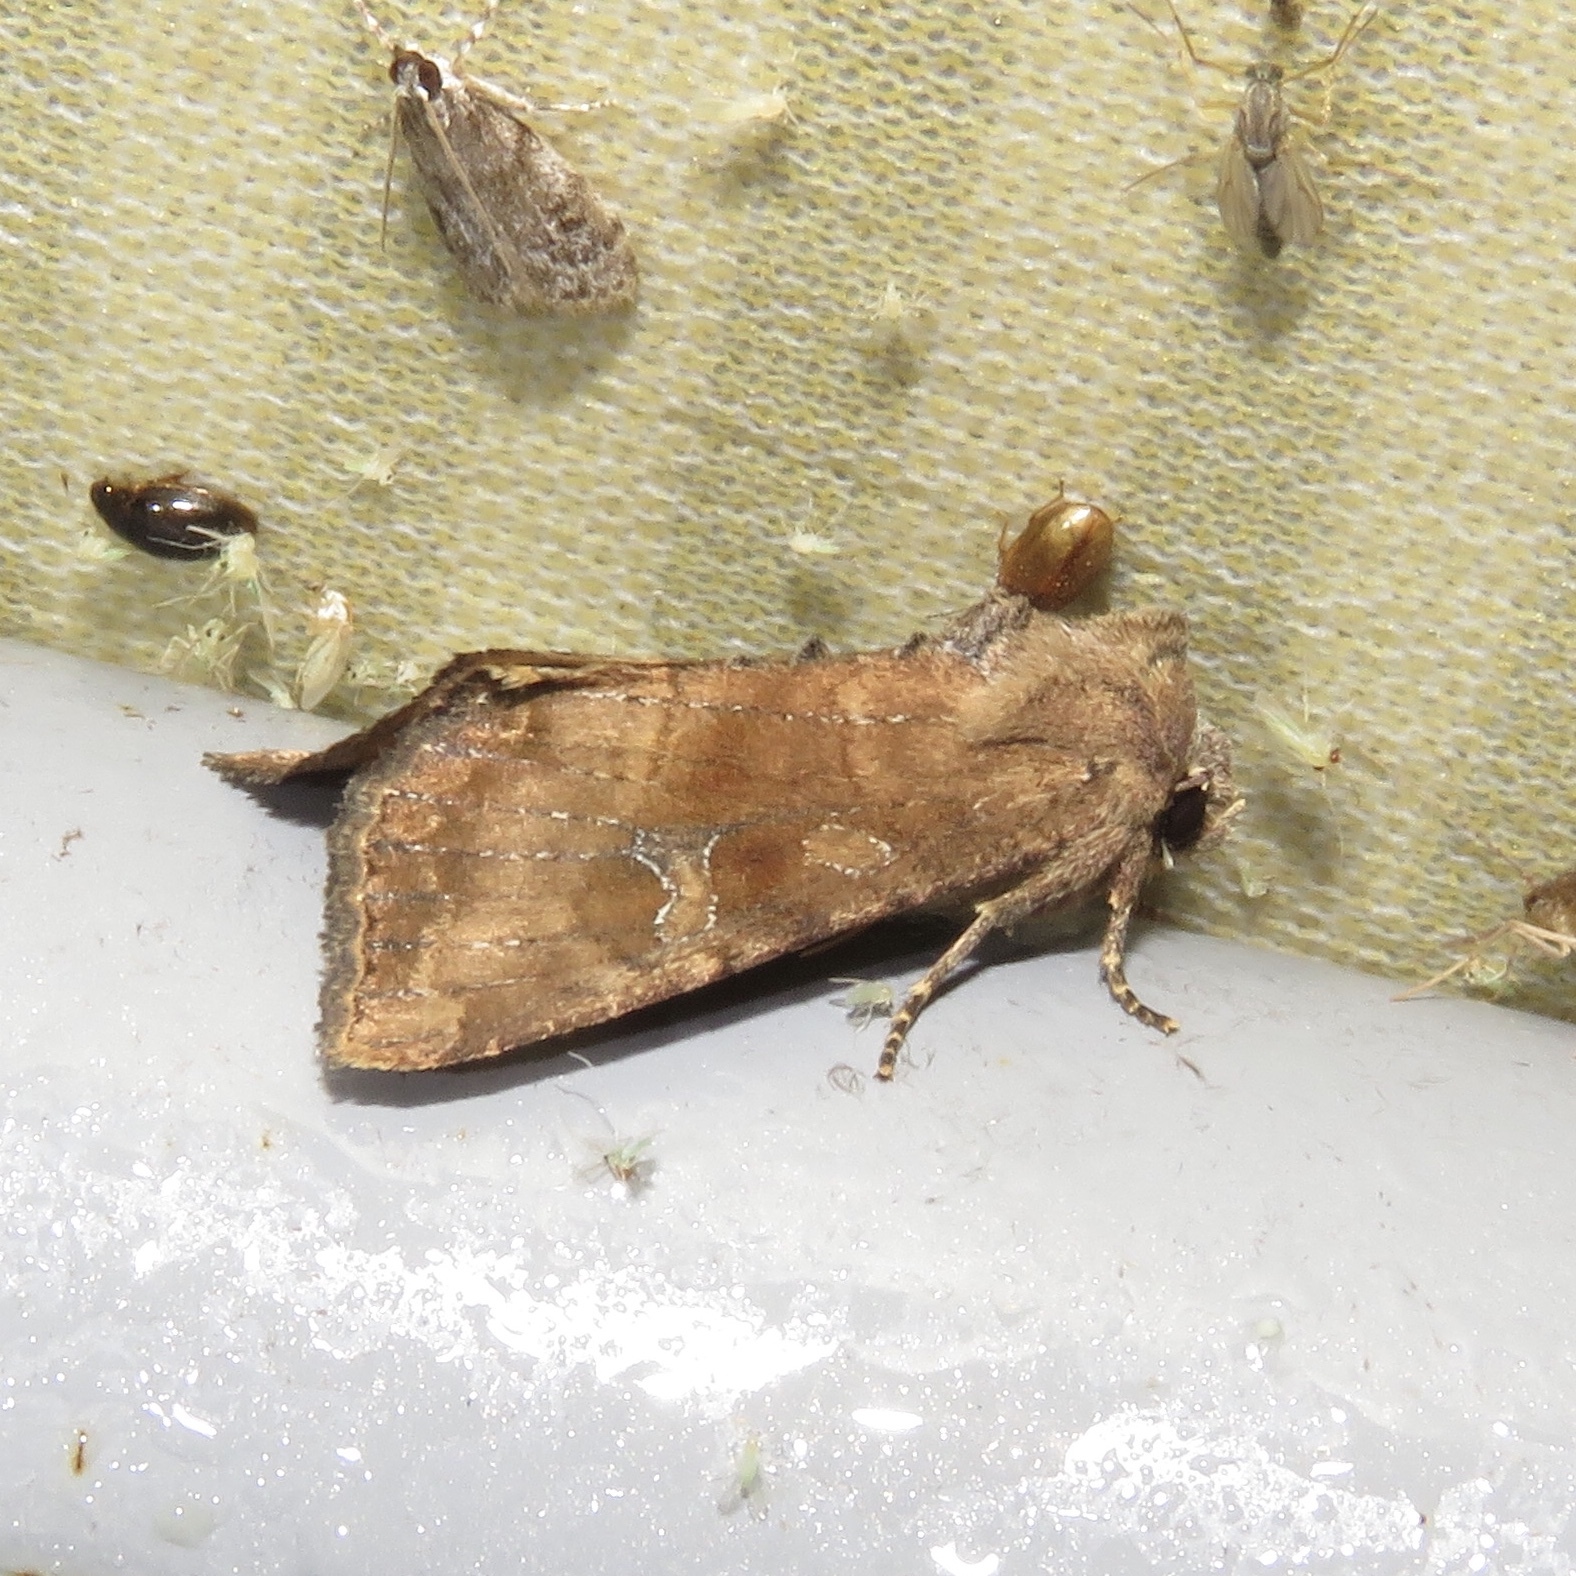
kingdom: Animalia
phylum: Arthropoda
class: Insecta
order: Lepidoptera
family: Noctuidae
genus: Loscopia
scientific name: Loscopia velata
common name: Veiled ear moth
